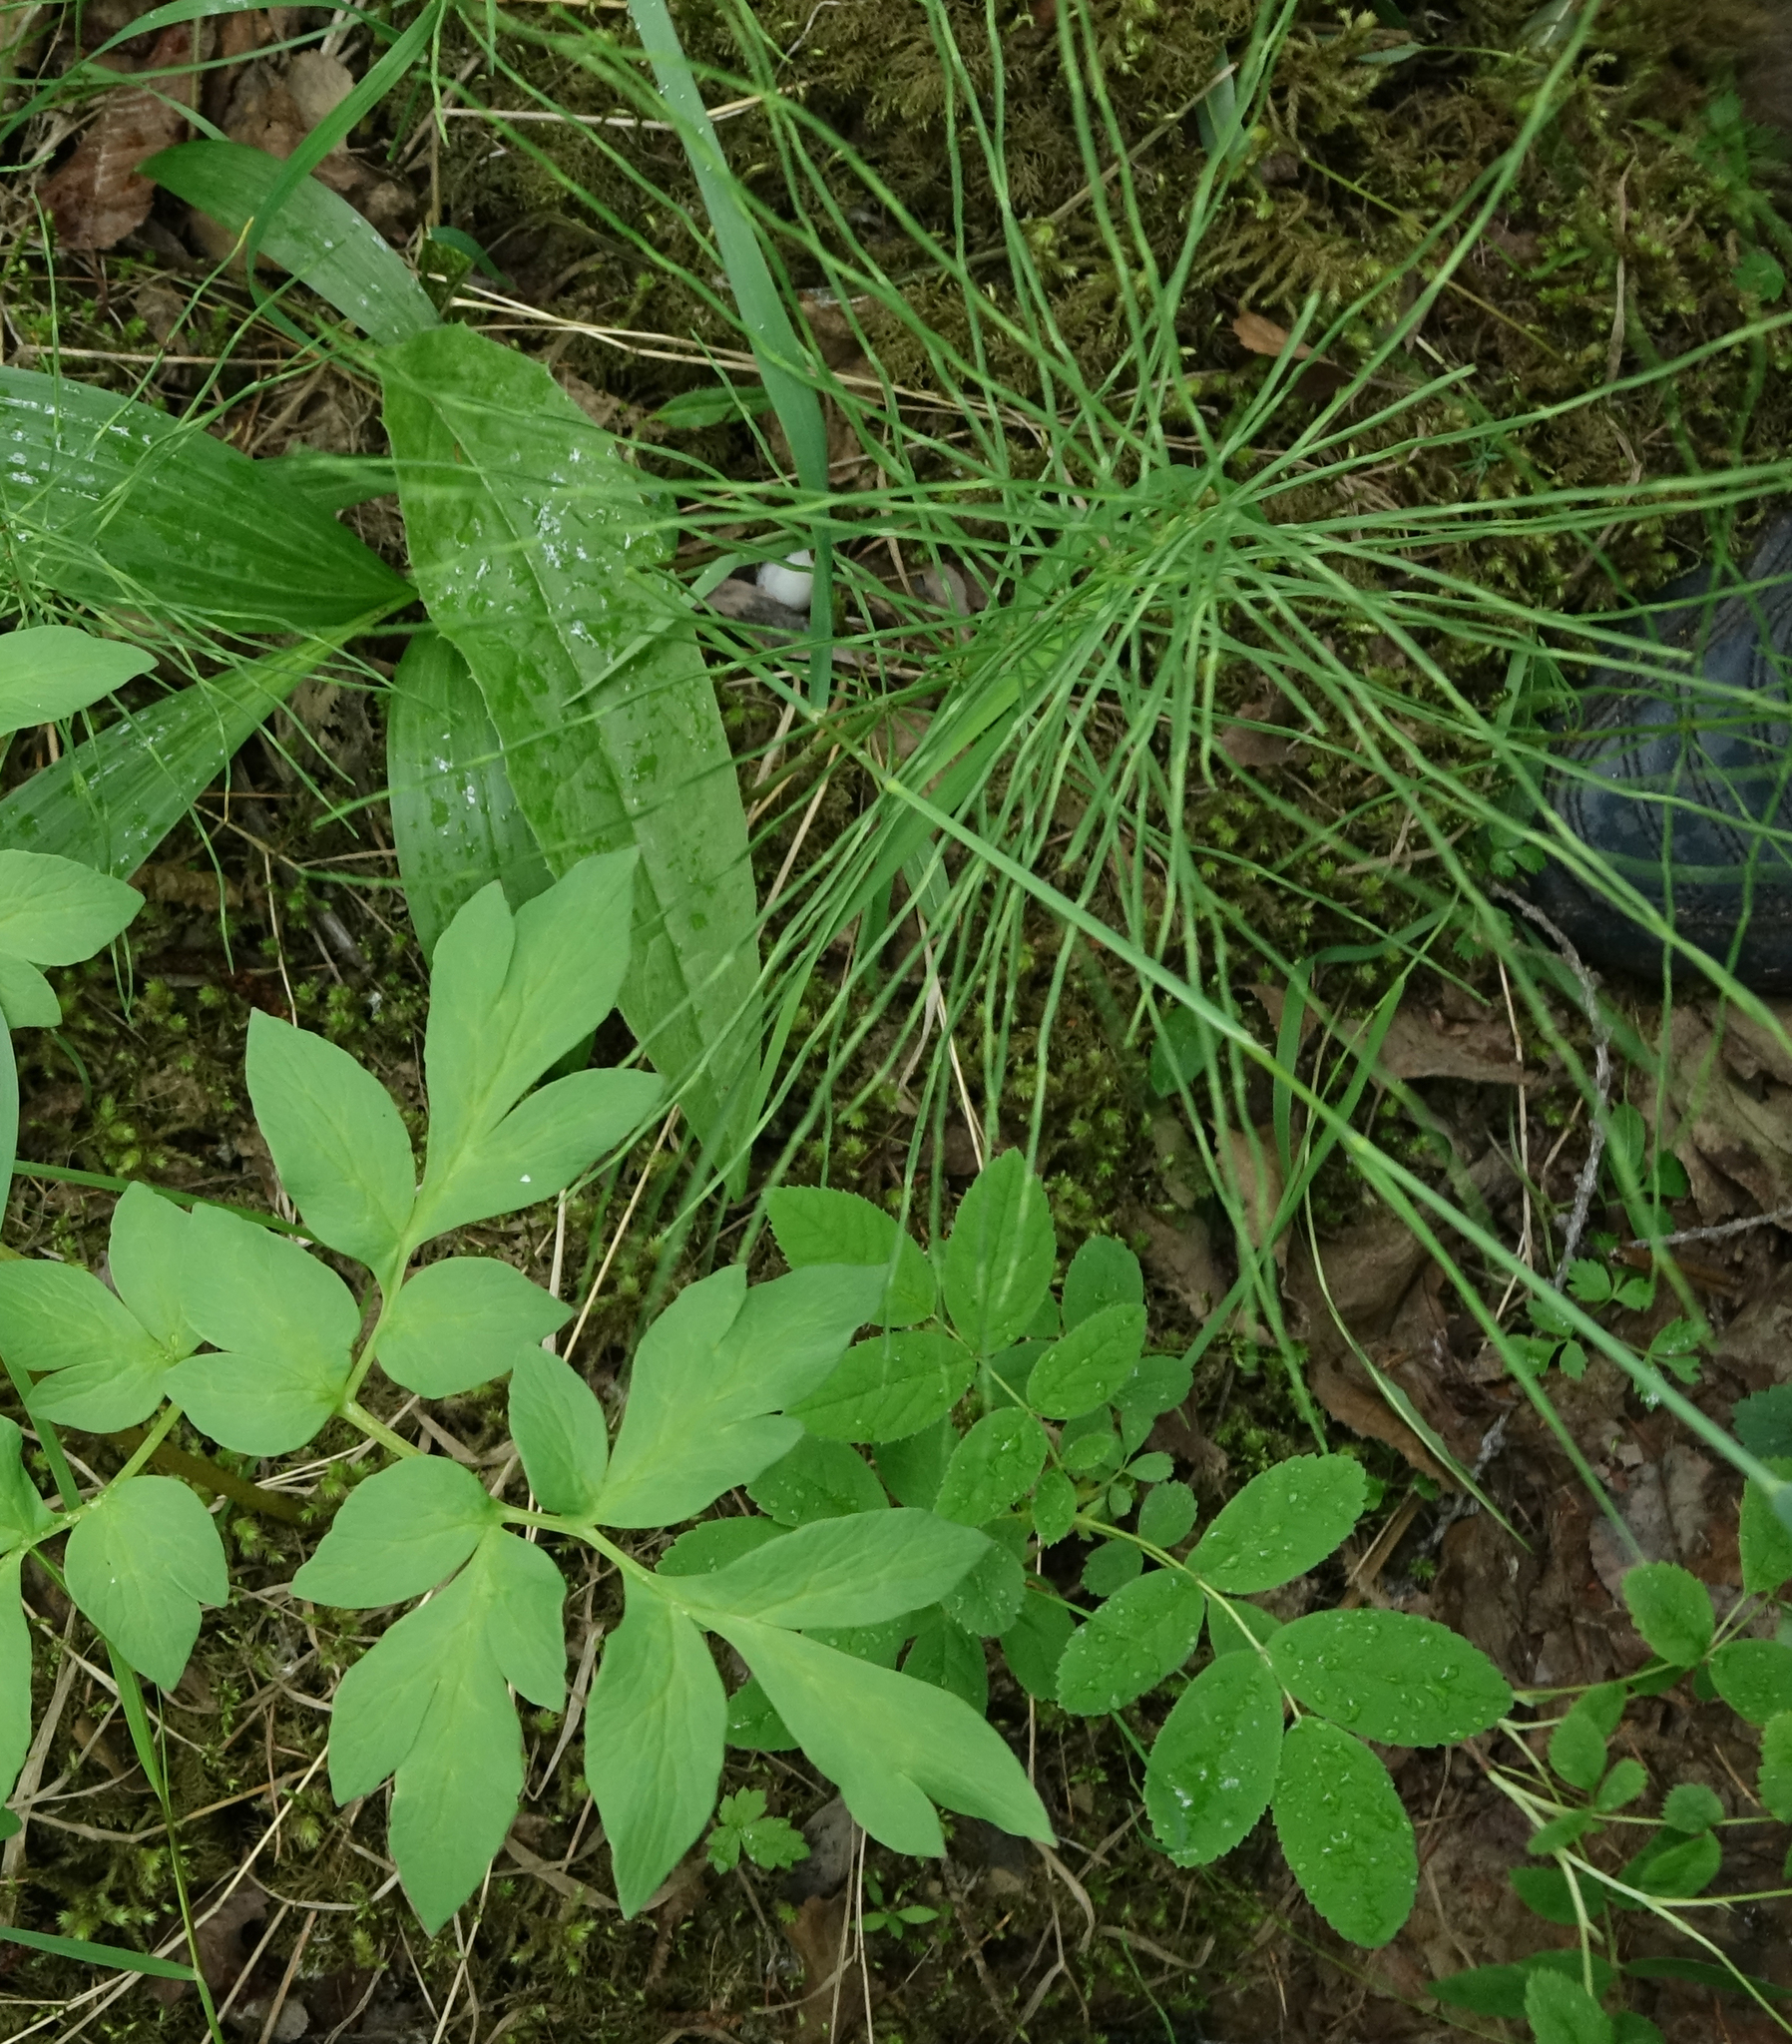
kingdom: Plantae
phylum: Tracheophyta
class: Polypodiopsida
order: Equisetales
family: Equisetaceae
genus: Equisetum
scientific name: Equisetum pratense
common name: Meadow horsetail
